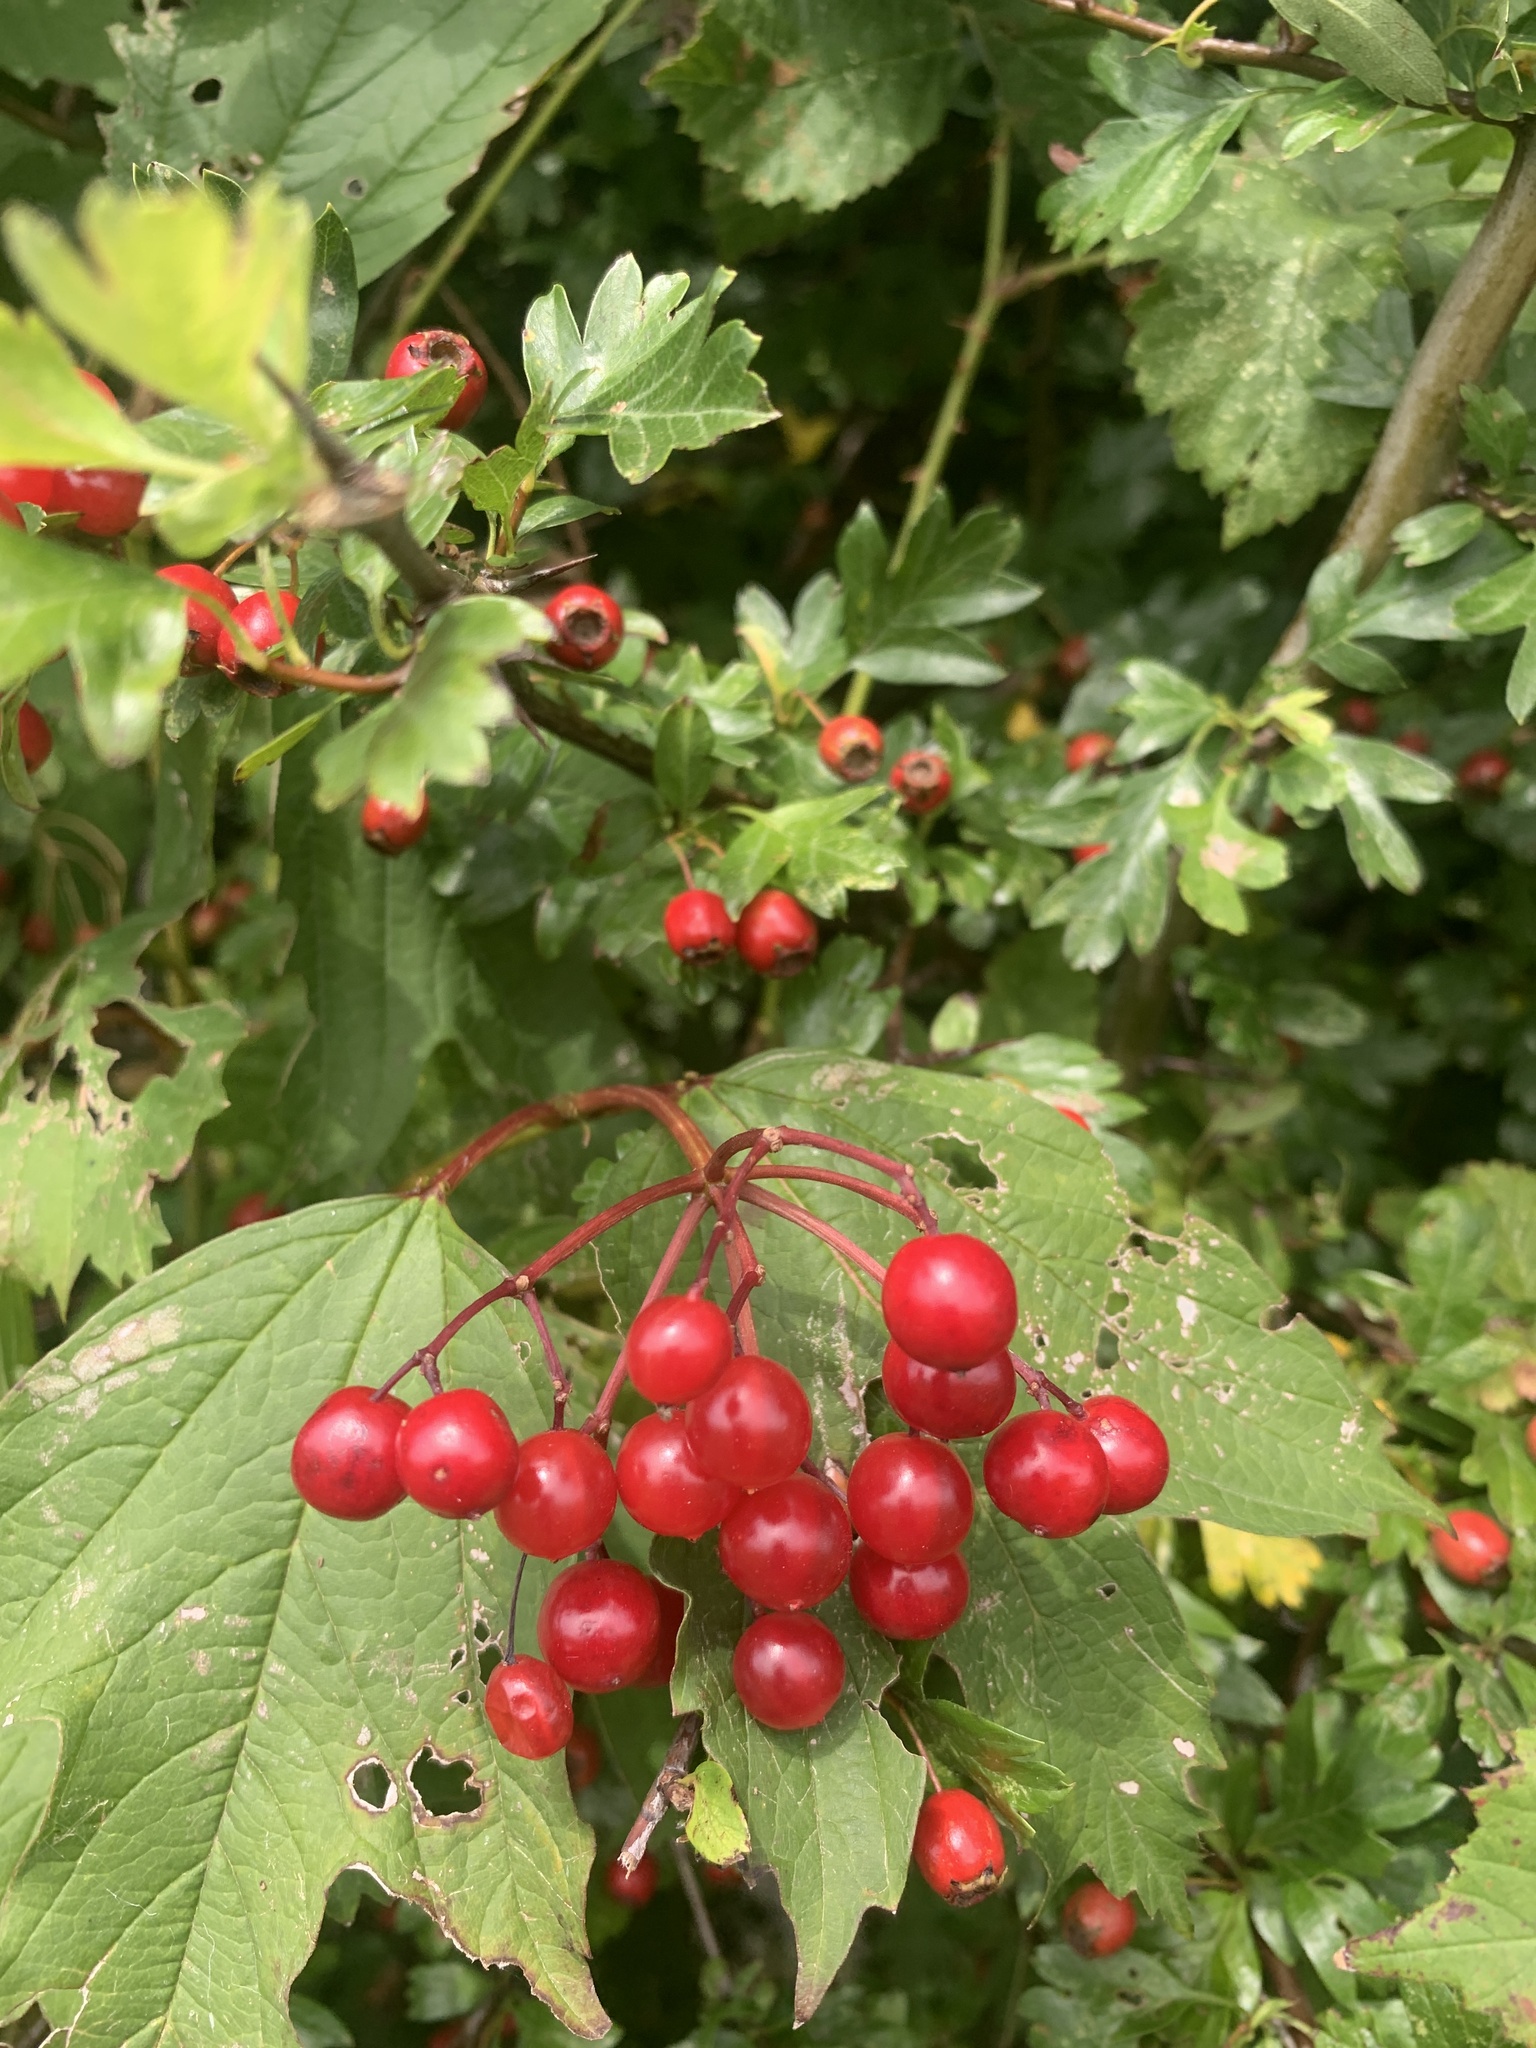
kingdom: Plantae
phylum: Tracheophyta
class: Magnoliopsida
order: Dipsacales
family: Viburnaceae
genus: Viburnum
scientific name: Viburnum opulus
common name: Guelder-rose
